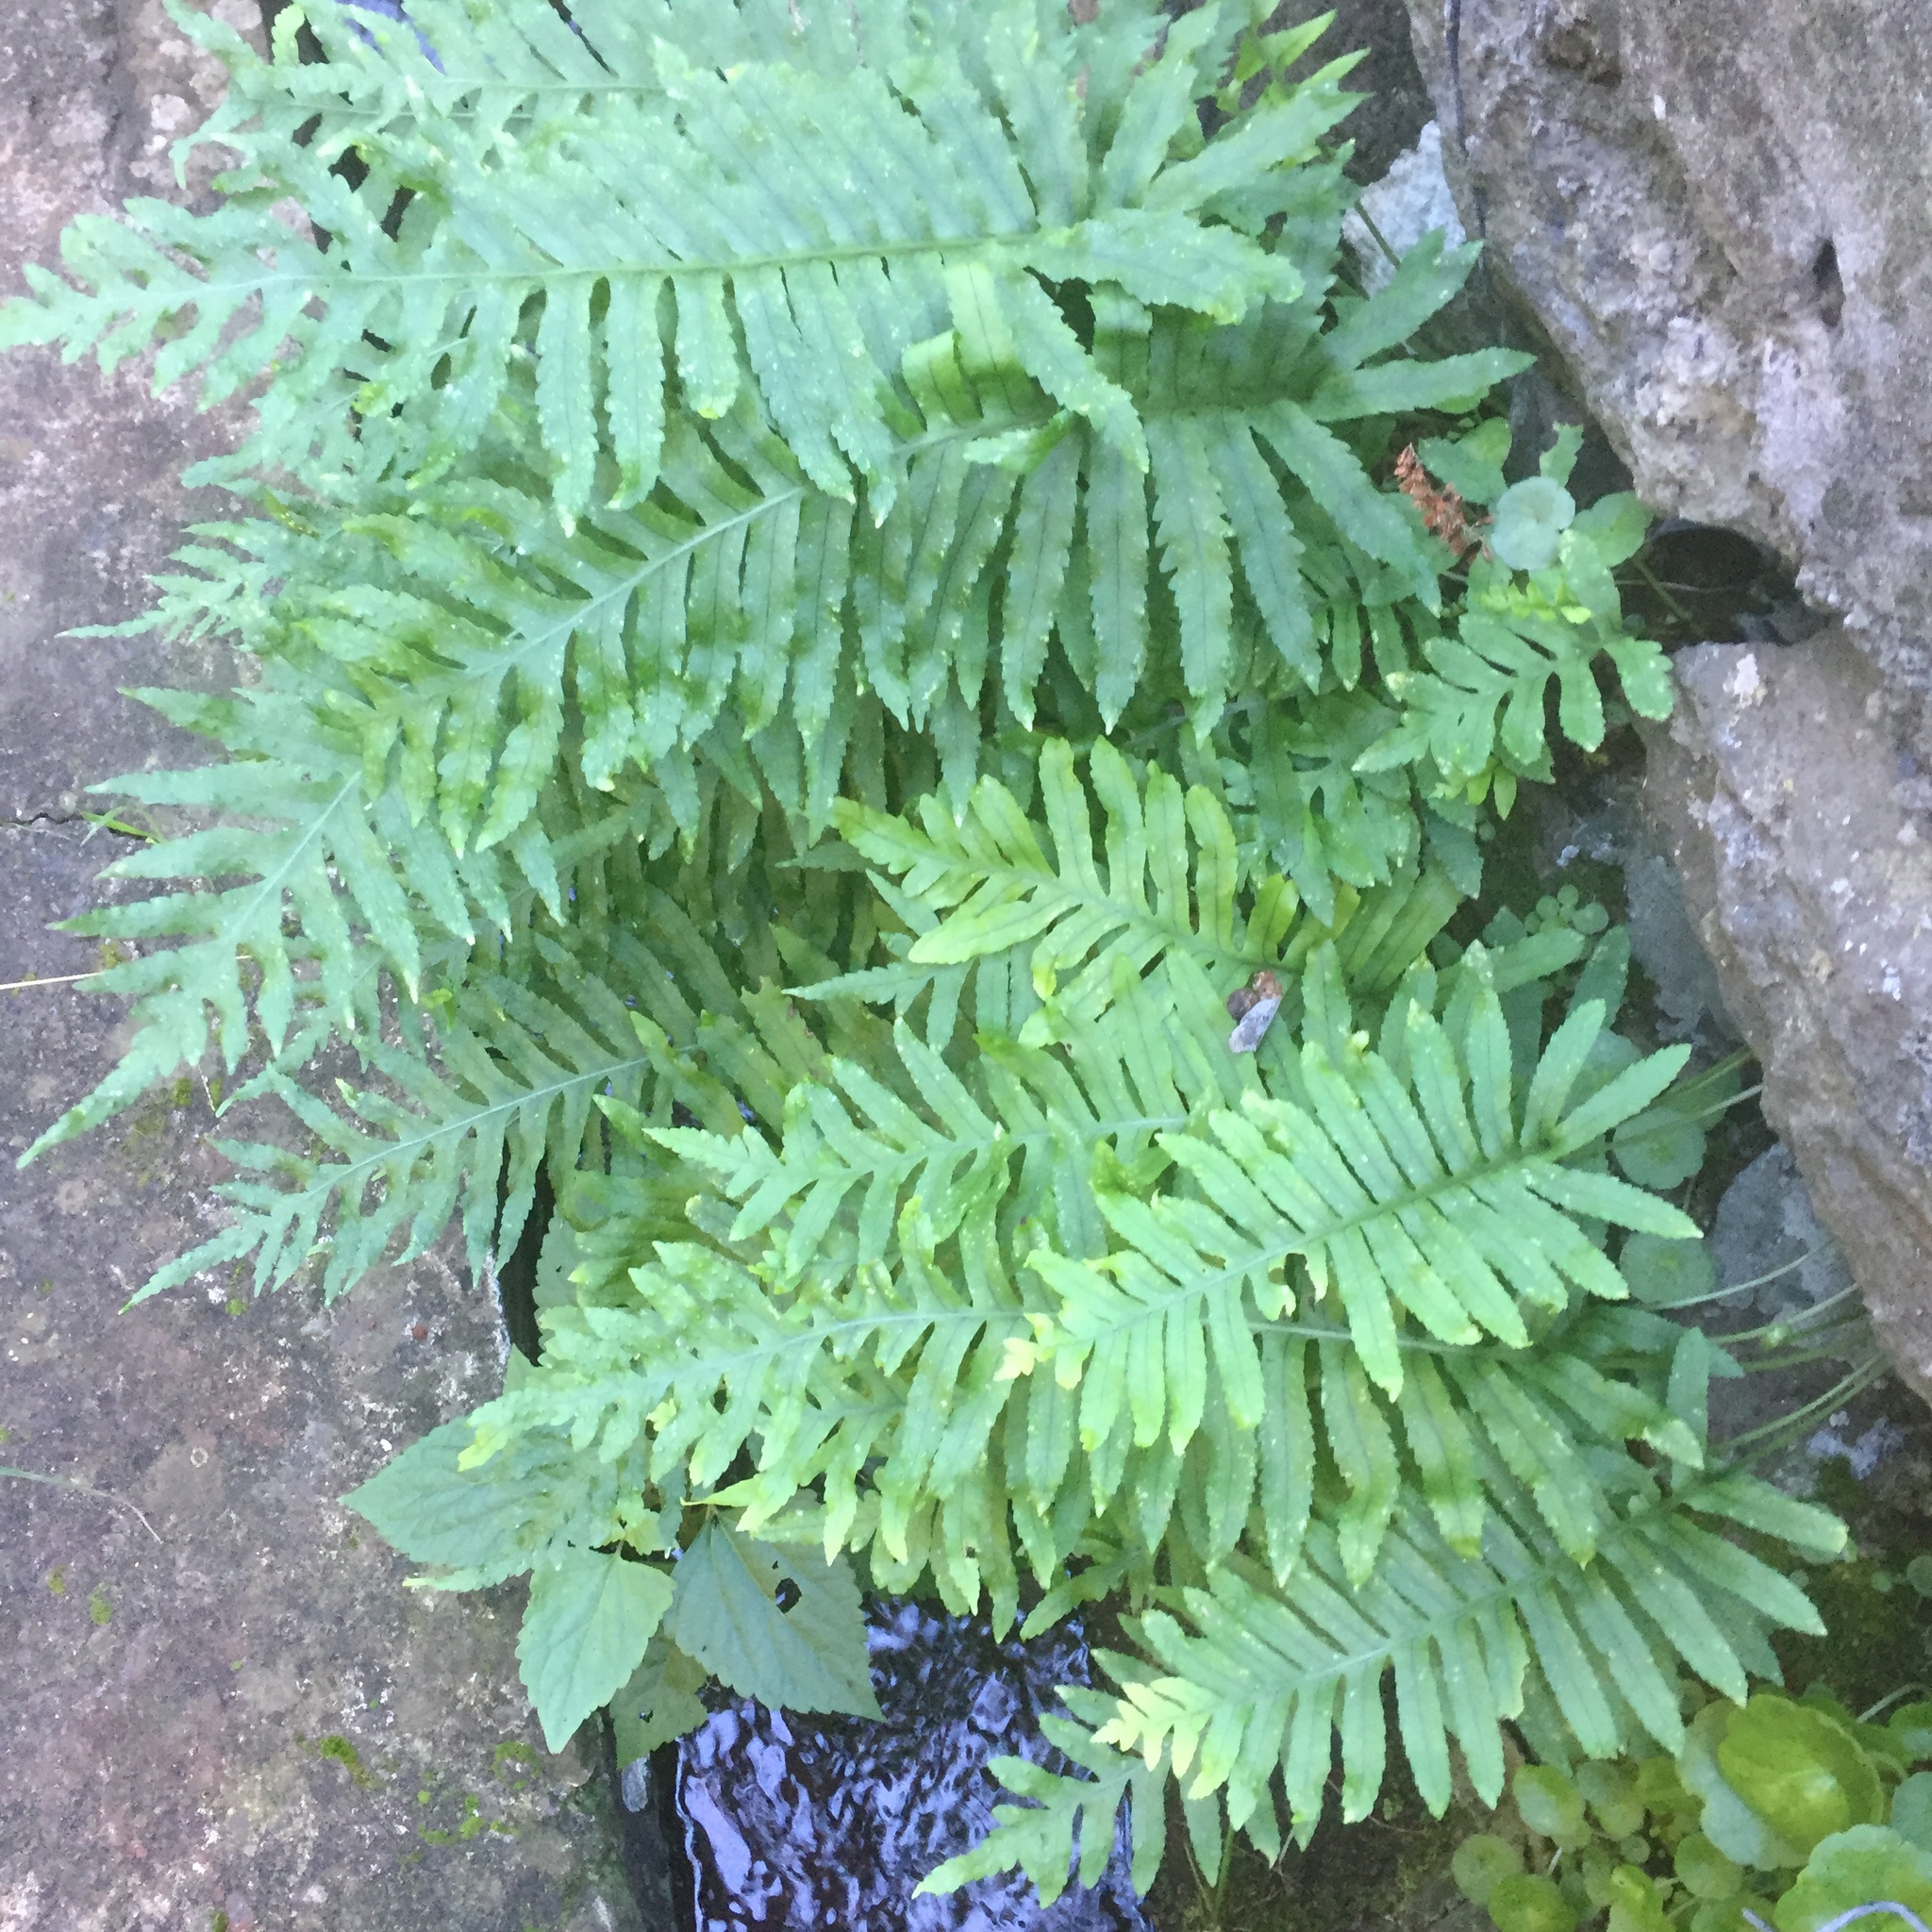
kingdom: Plantae
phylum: Tracheophyta
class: Polypodiopsida
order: Polypodiales
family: Polypodiaceae
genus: Polypodium
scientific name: Polypodium macaronesicum
